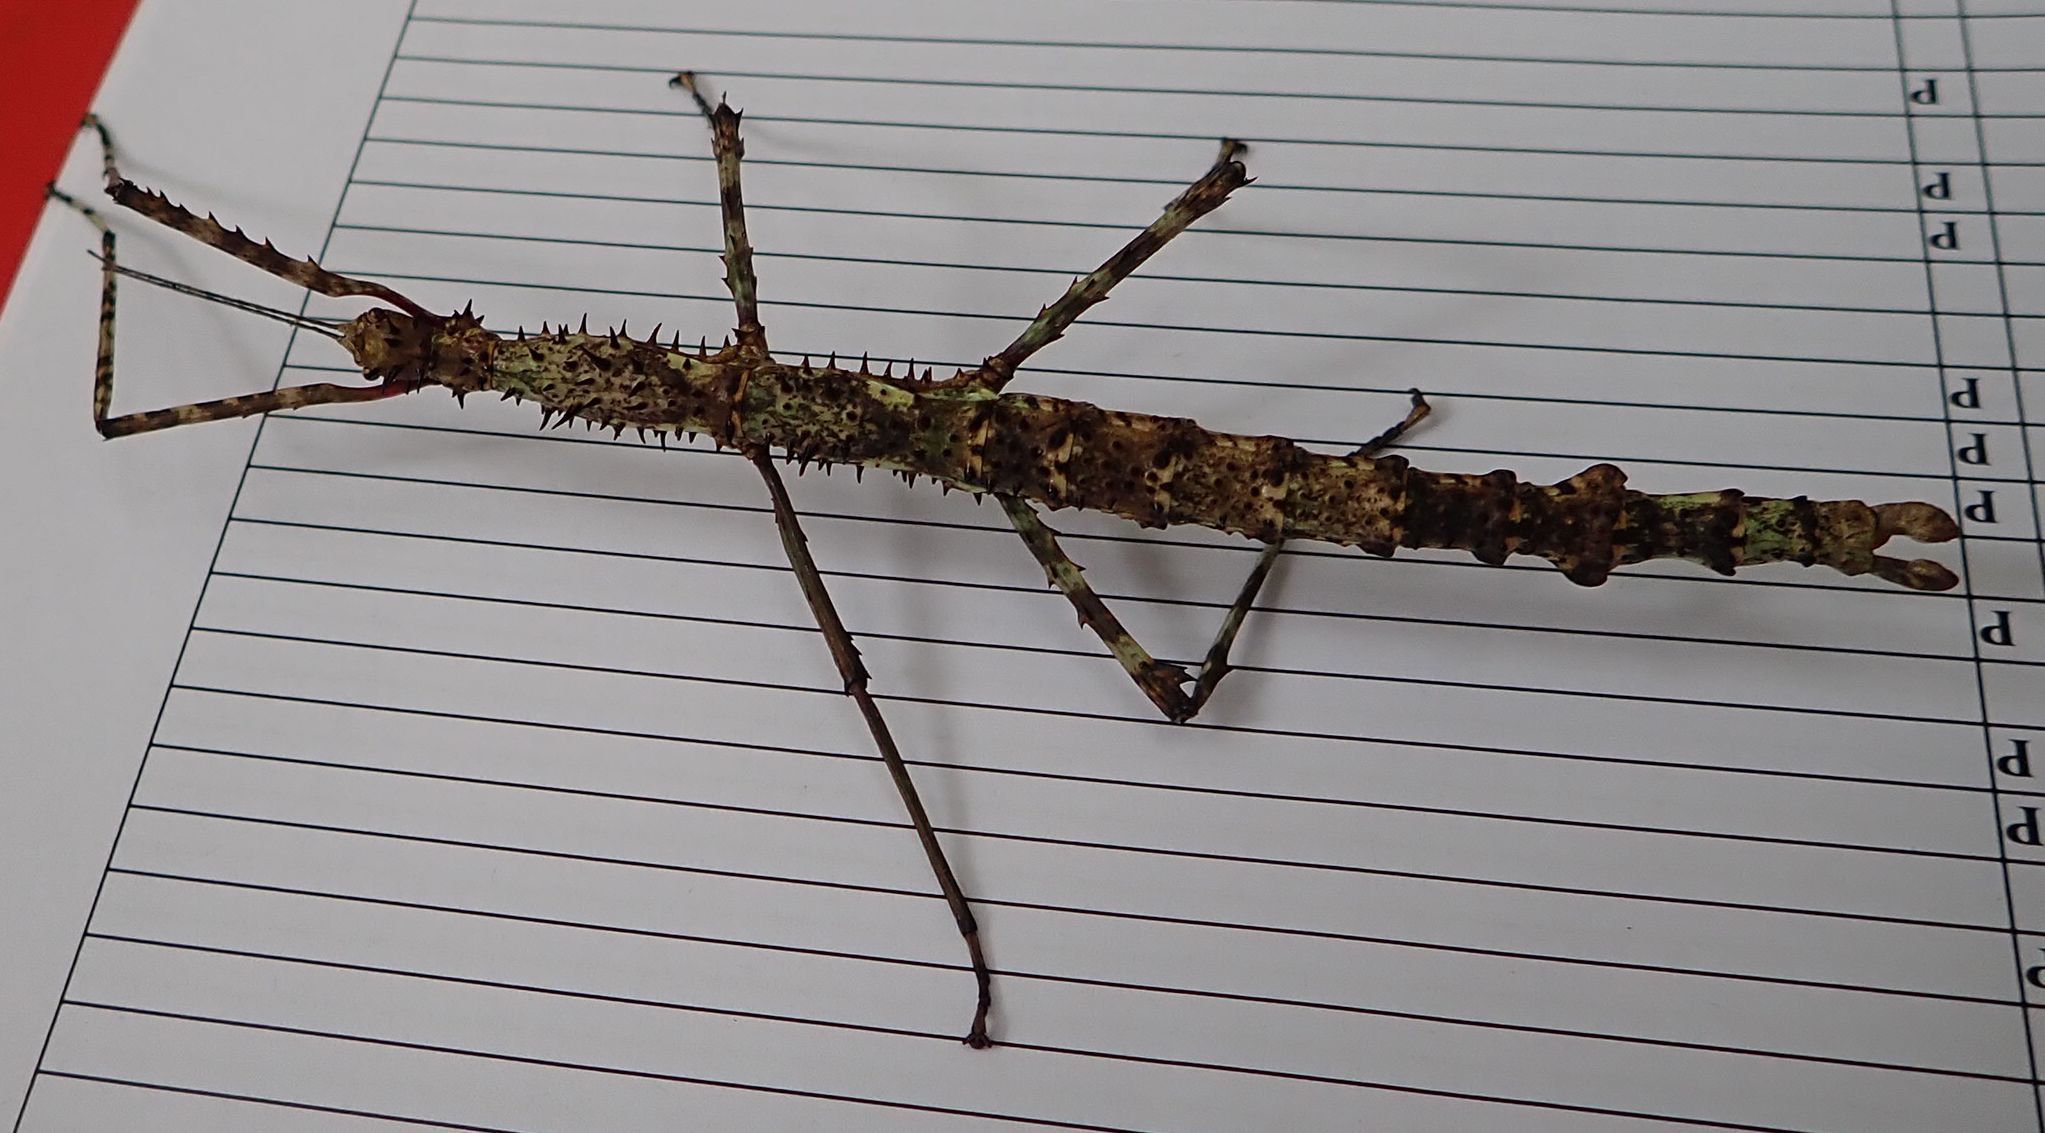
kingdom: Animalia
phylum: Arthropoda
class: Insecta
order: Phasmida
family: Phasmatidae
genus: Acanthoxyla
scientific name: Acanthoxyla prasina
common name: Black-spined stick insect
